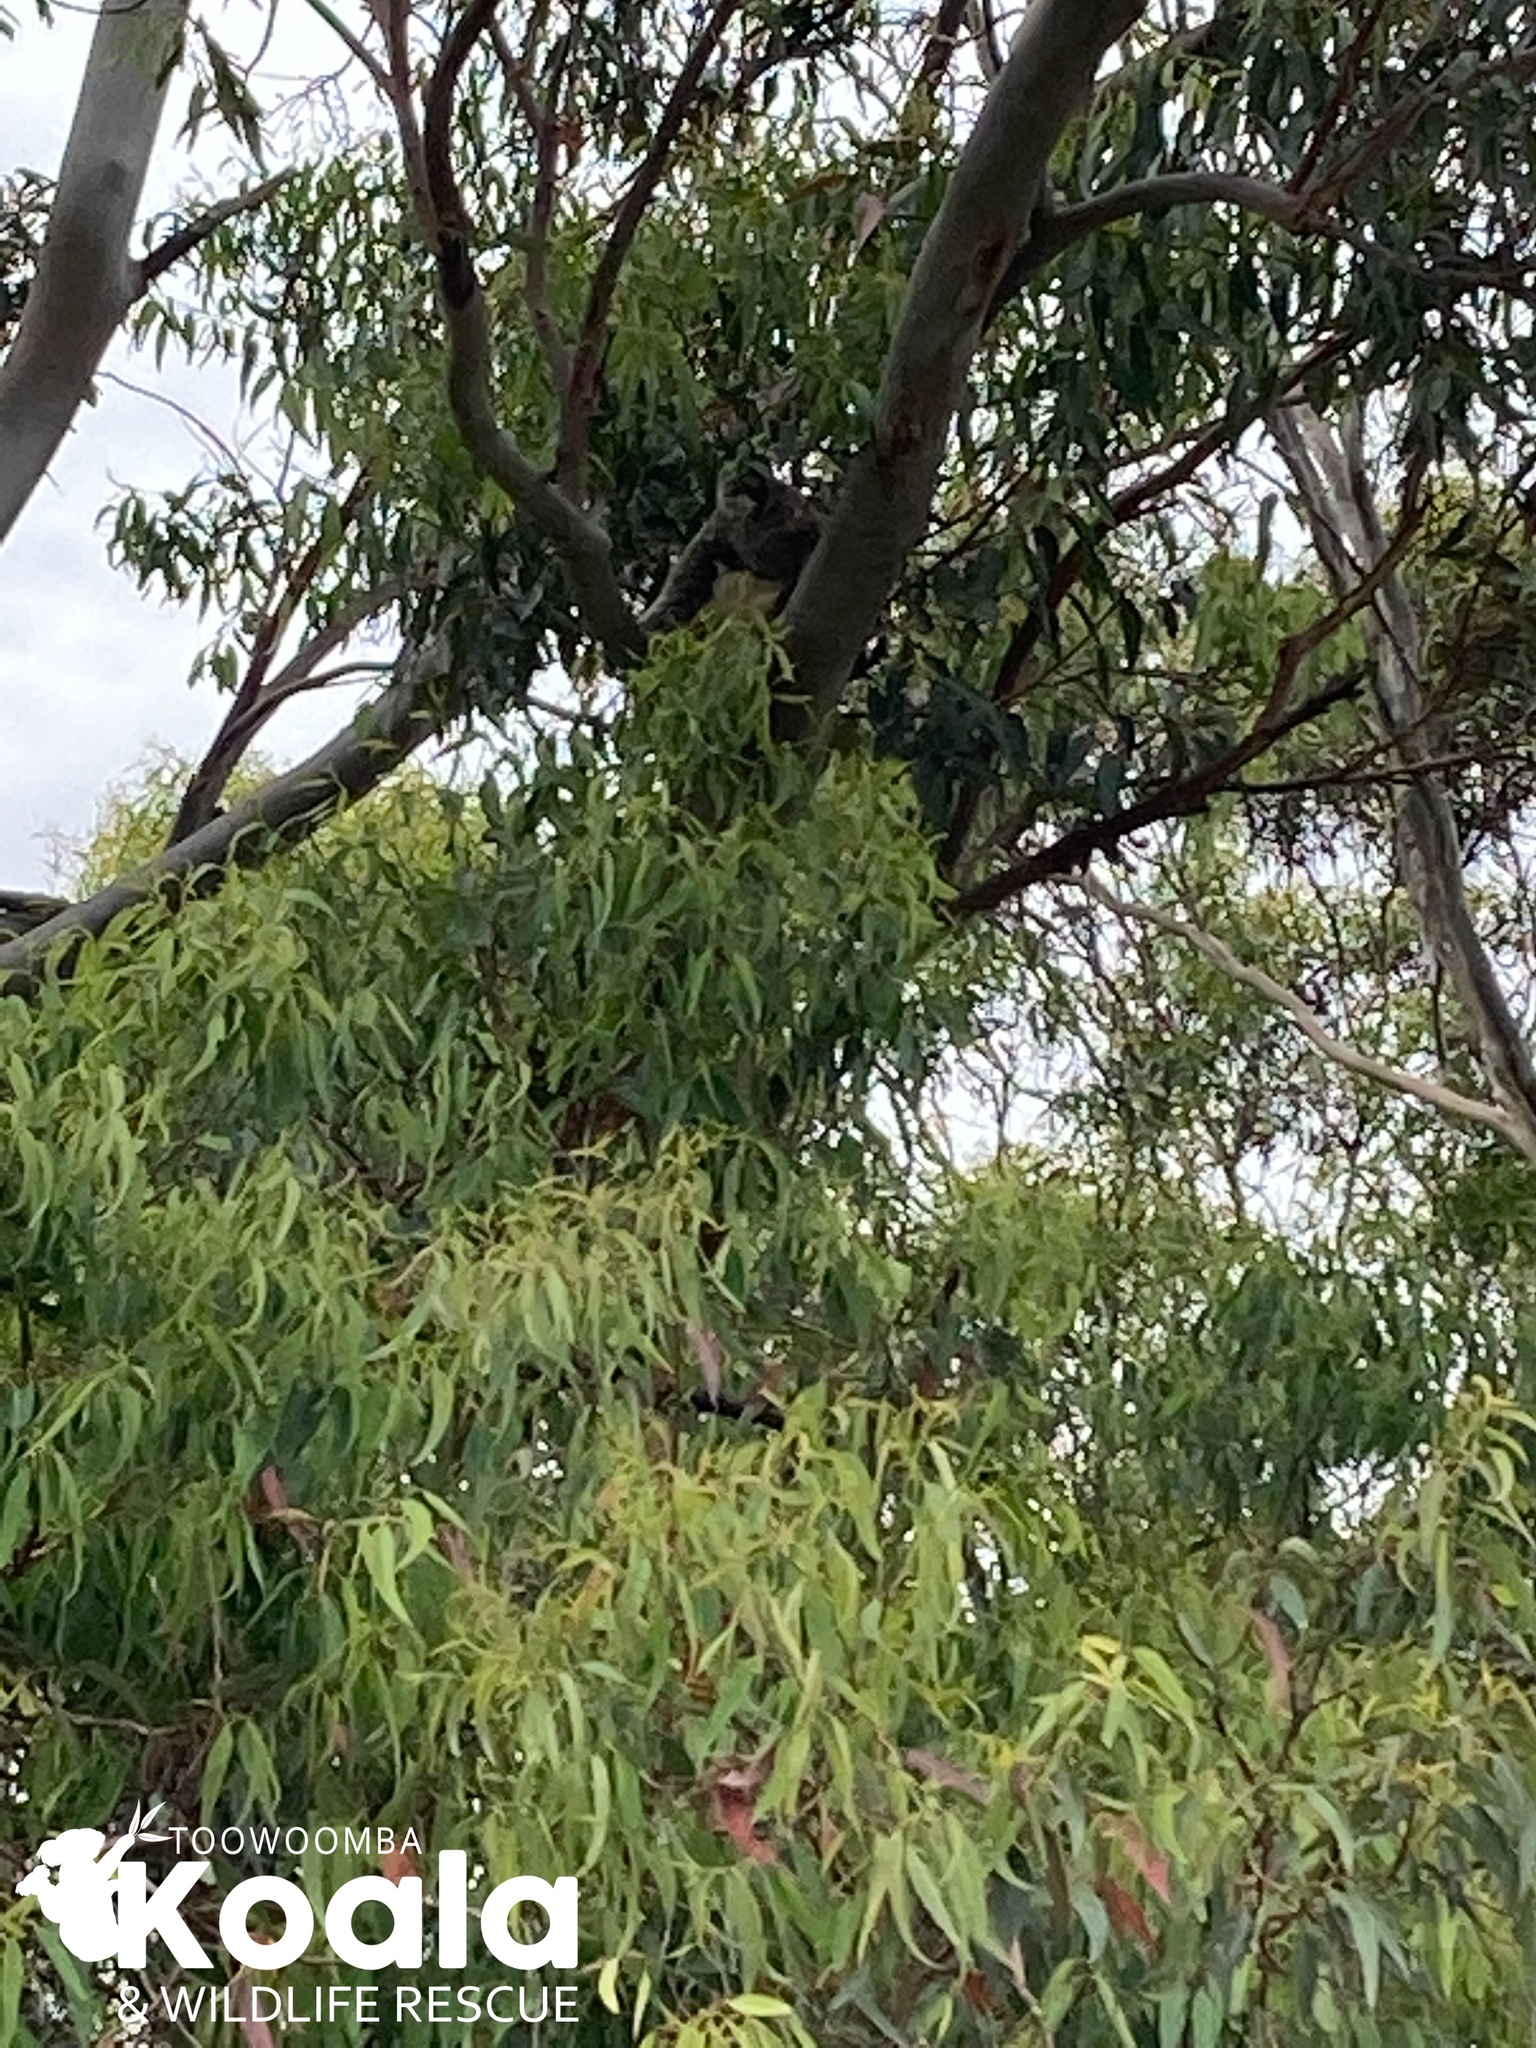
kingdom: Animalia
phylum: Chordata
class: Mammalia
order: Diprotodontia
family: Phascolarctidae
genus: Phascolarctos
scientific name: Phascolarctos cinereus
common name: Koala
